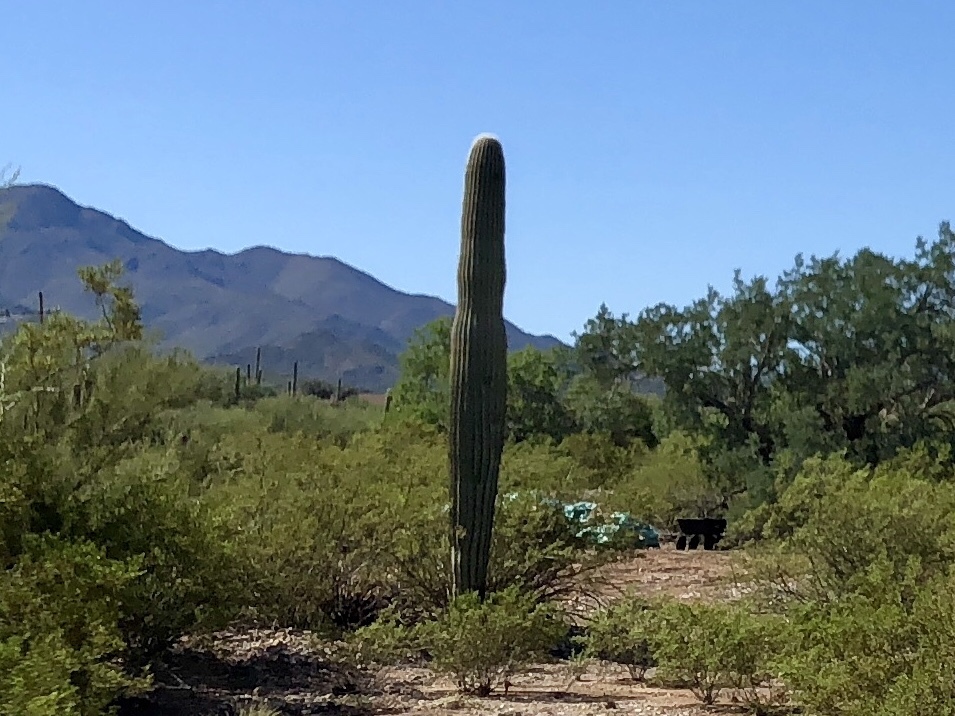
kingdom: Plantae
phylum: Tracheophyta
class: Magnoliopsida
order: Caryophyllales
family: Cactaceae
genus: Carnegiea
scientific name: Carnegiea gigantea
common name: Saguaro
